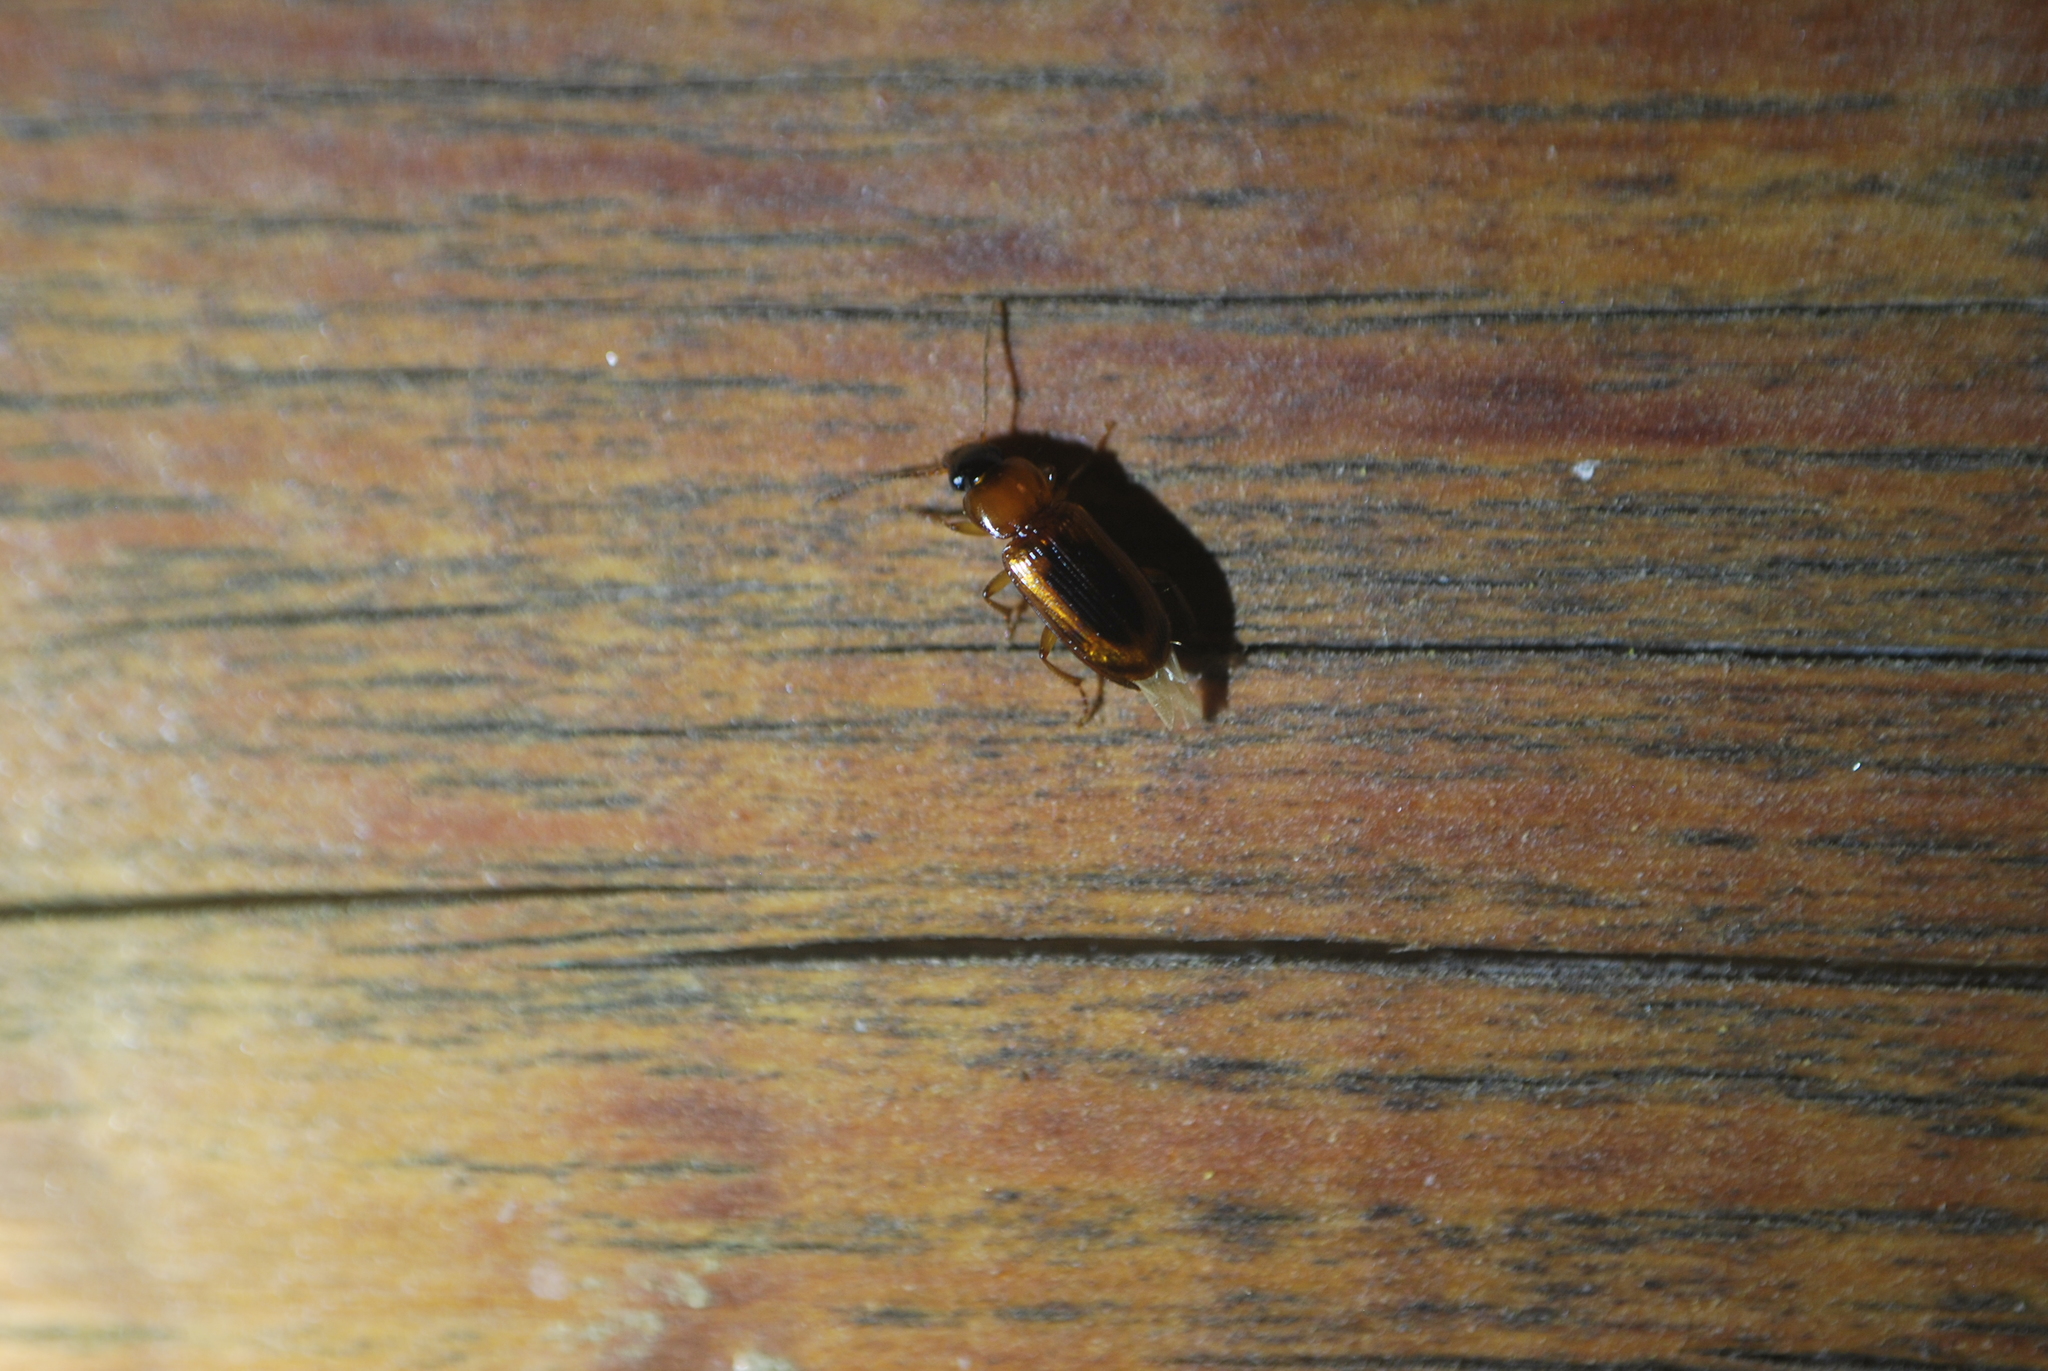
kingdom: Animalia
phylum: Arthropoda
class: Insecta
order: Coleoptera
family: Carabidae
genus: Stenolophus
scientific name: Stenolophus dissimilis
